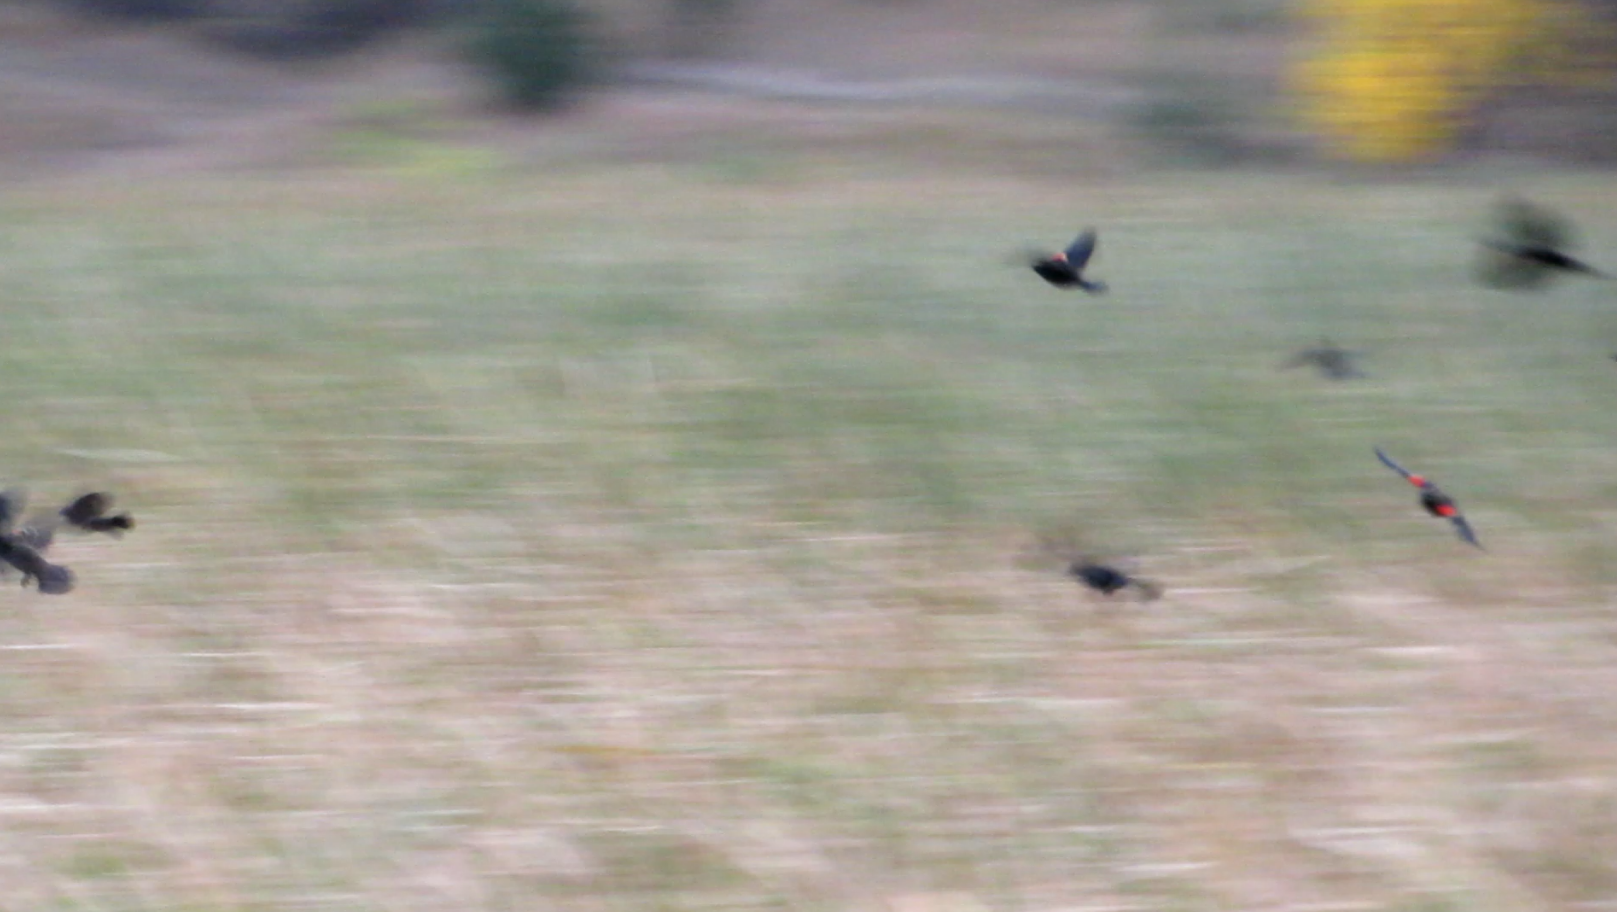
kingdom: Animalia
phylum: Chordata
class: Aves
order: Passeriformes
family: Icteridae
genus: Agelaius
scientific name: Agelaius phoeniceus
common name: Red-winged blackbird
